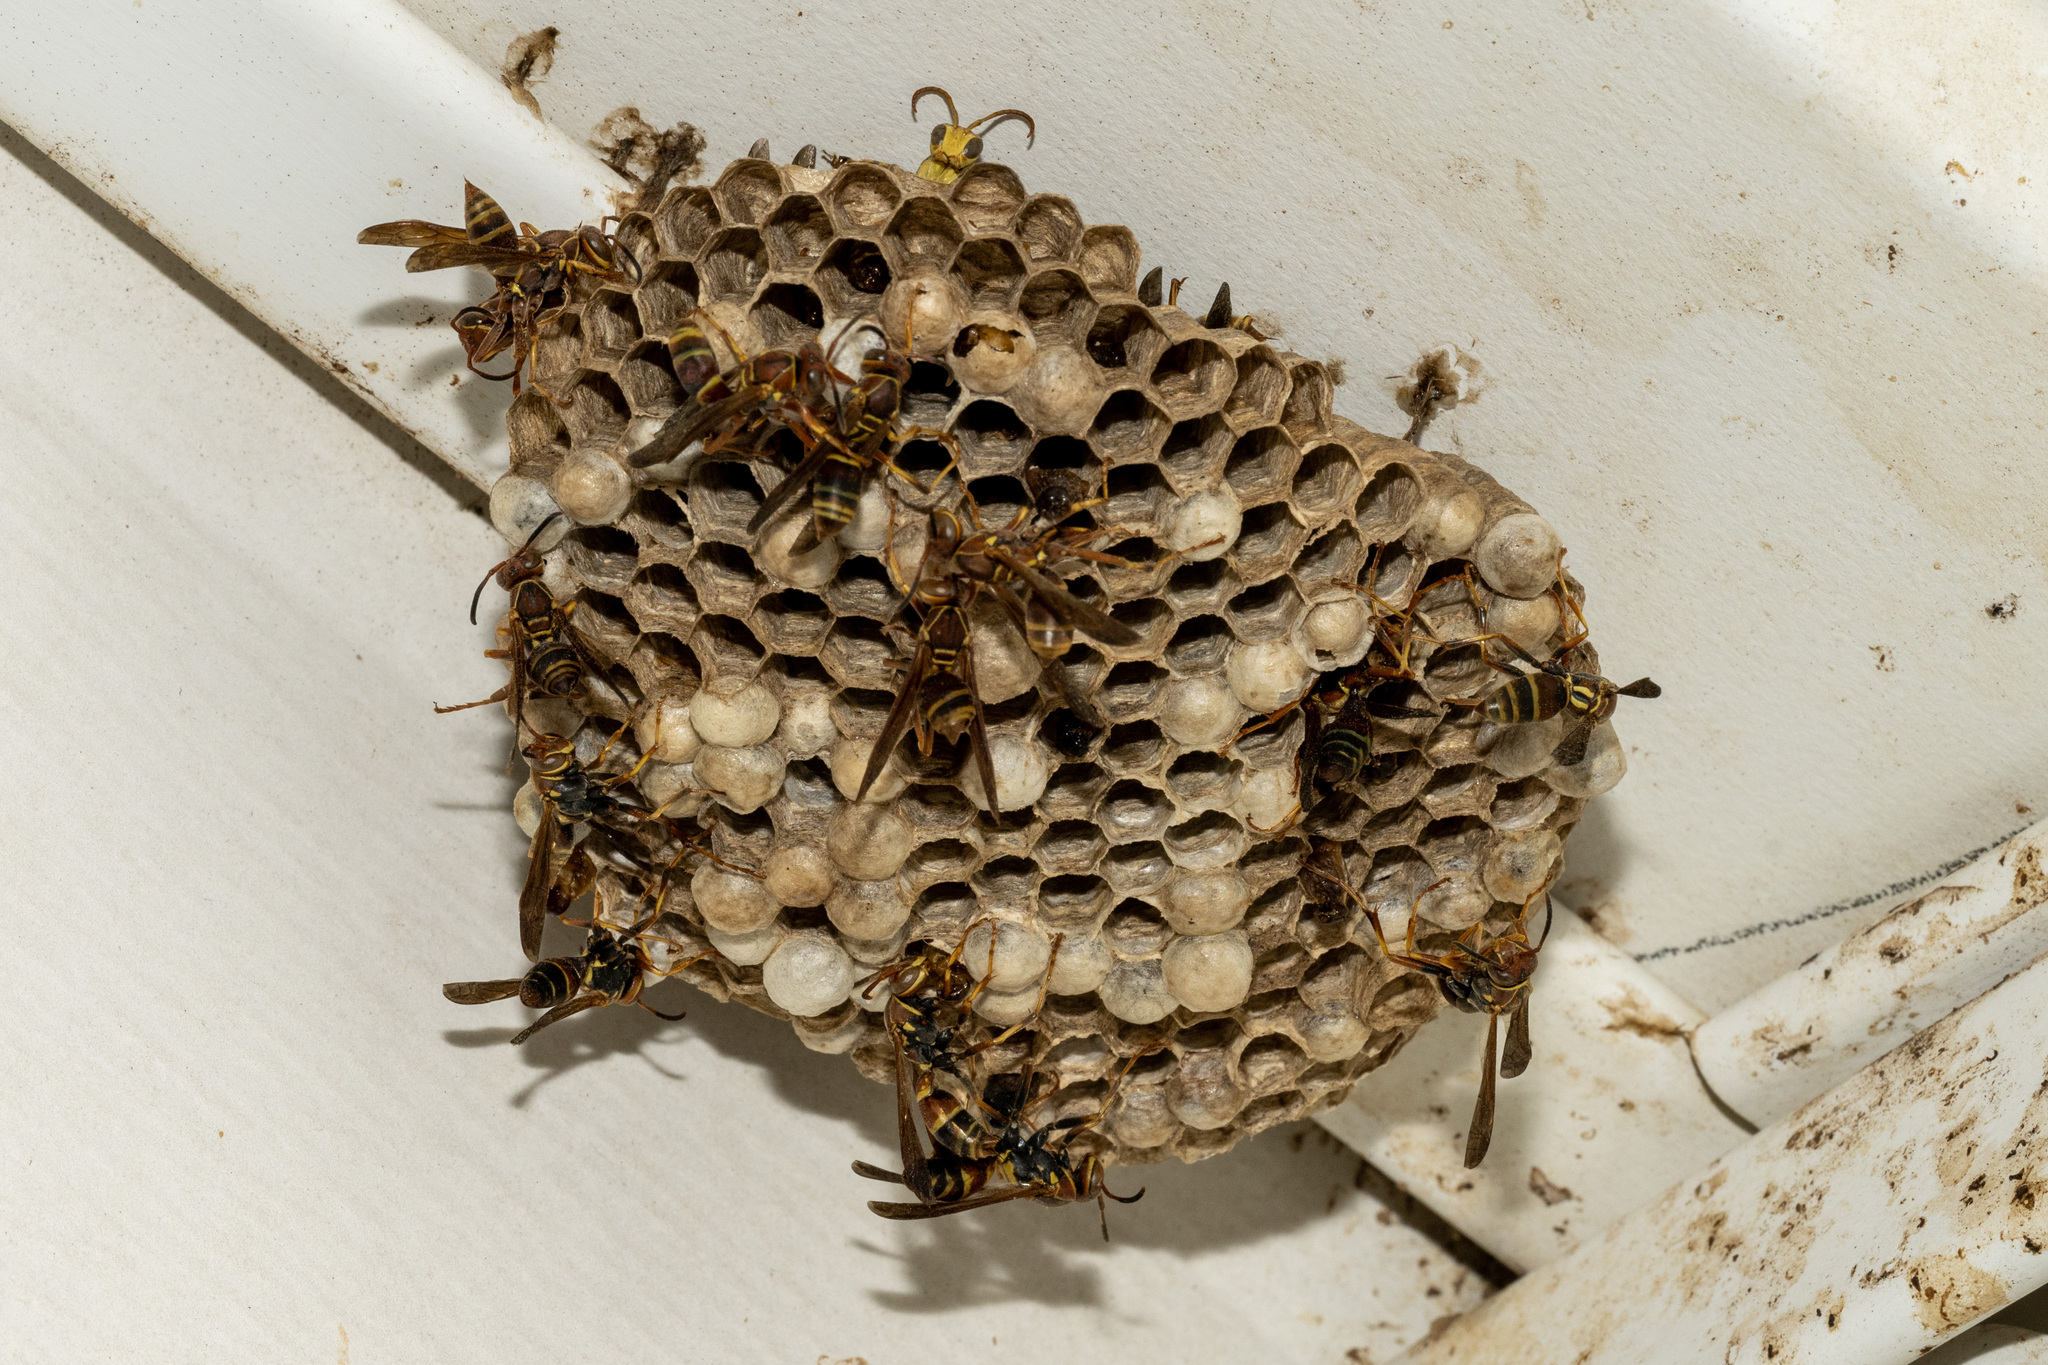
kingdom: Animalia
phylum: Arthropoda
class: Insecta
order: Hymenoptera
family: Eumenidae
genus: Polistes
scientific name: Polistes dorsalis
